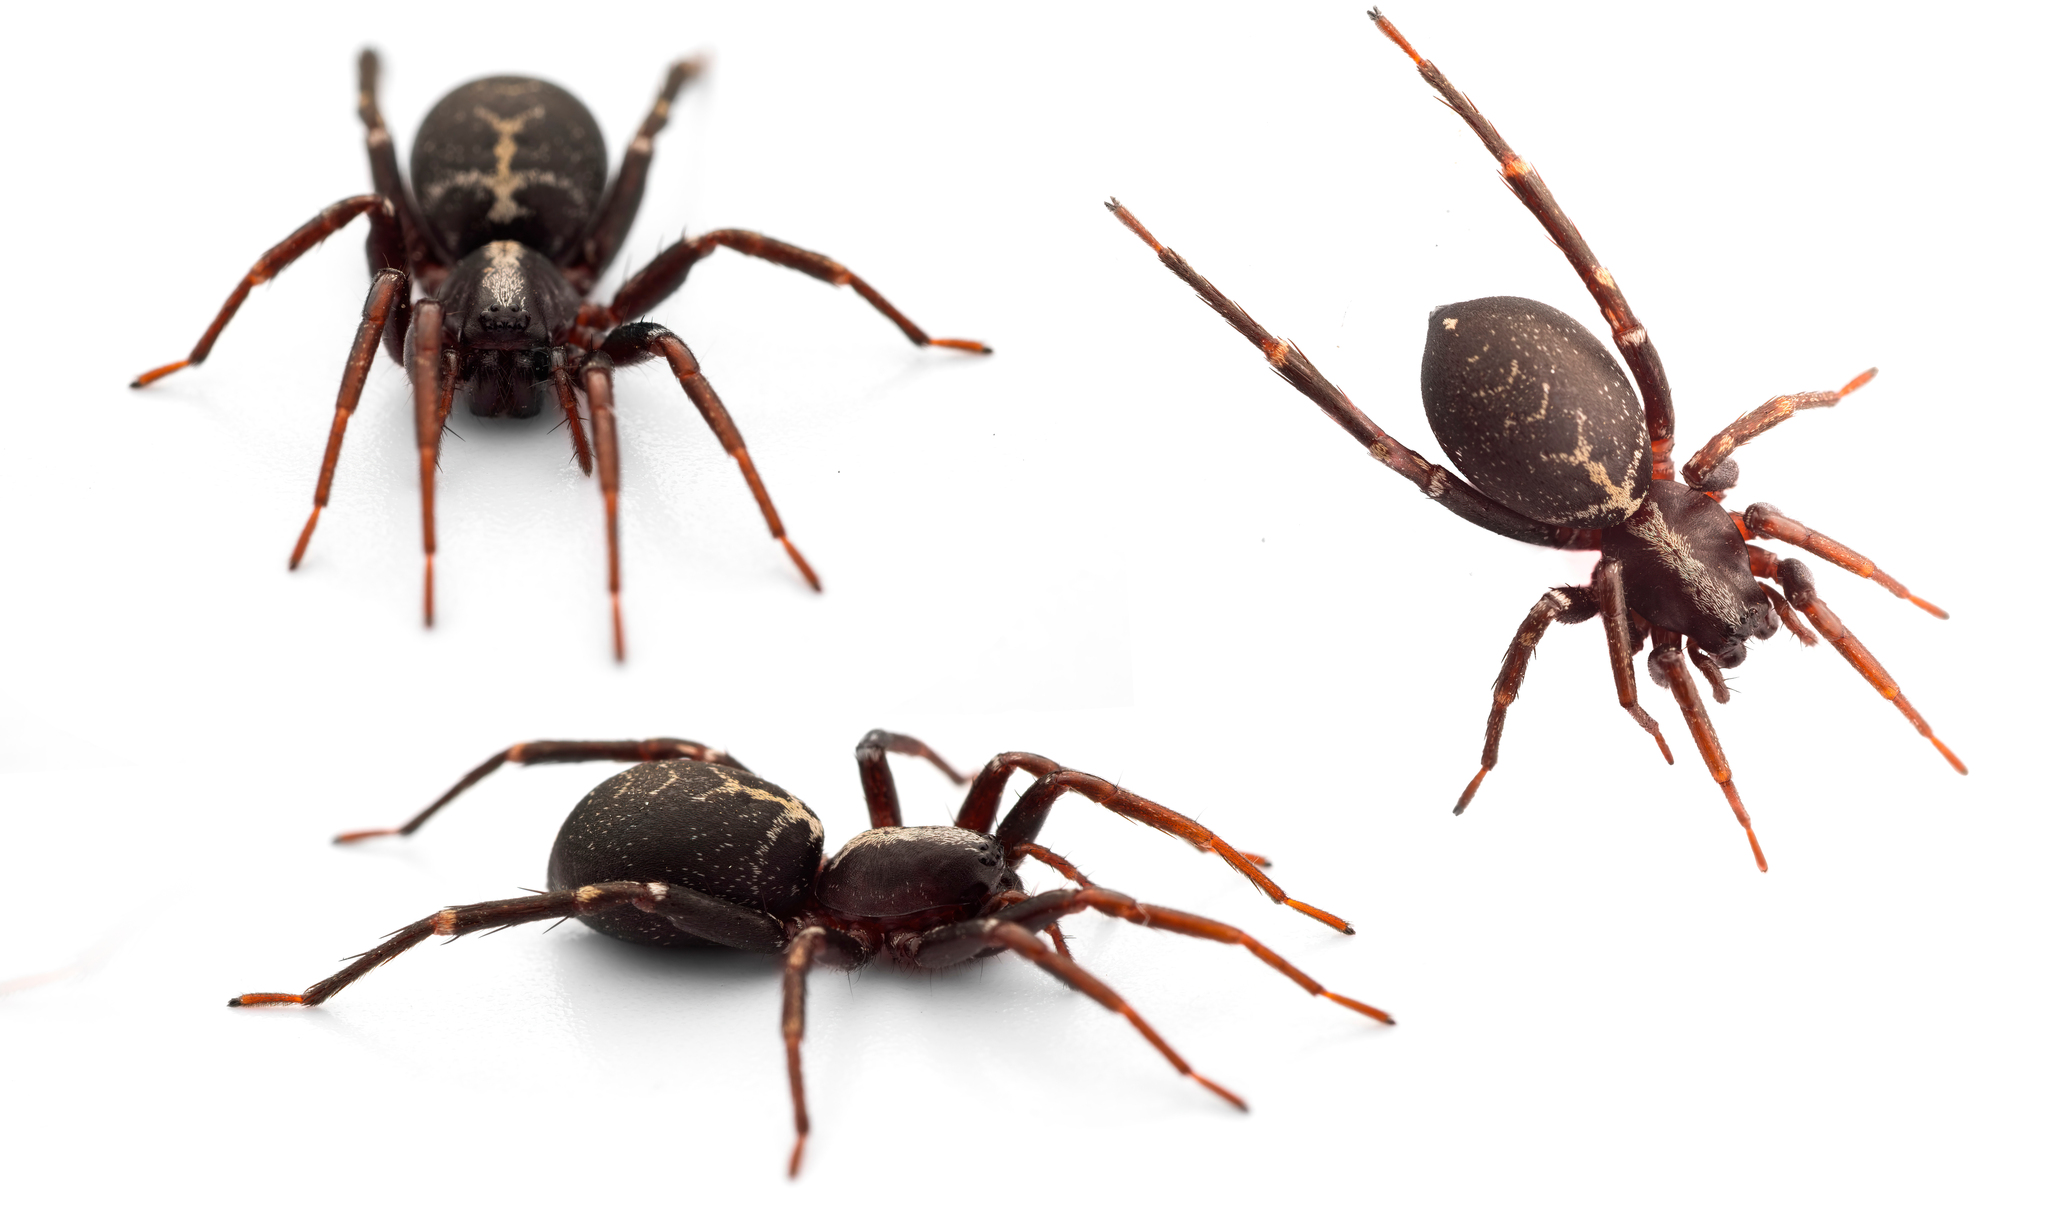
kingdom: Animalia
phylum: Arthropoda
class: Arachnida
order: Araneae
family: Corinnidae
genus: Castianeira
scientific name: Castianeira badia
